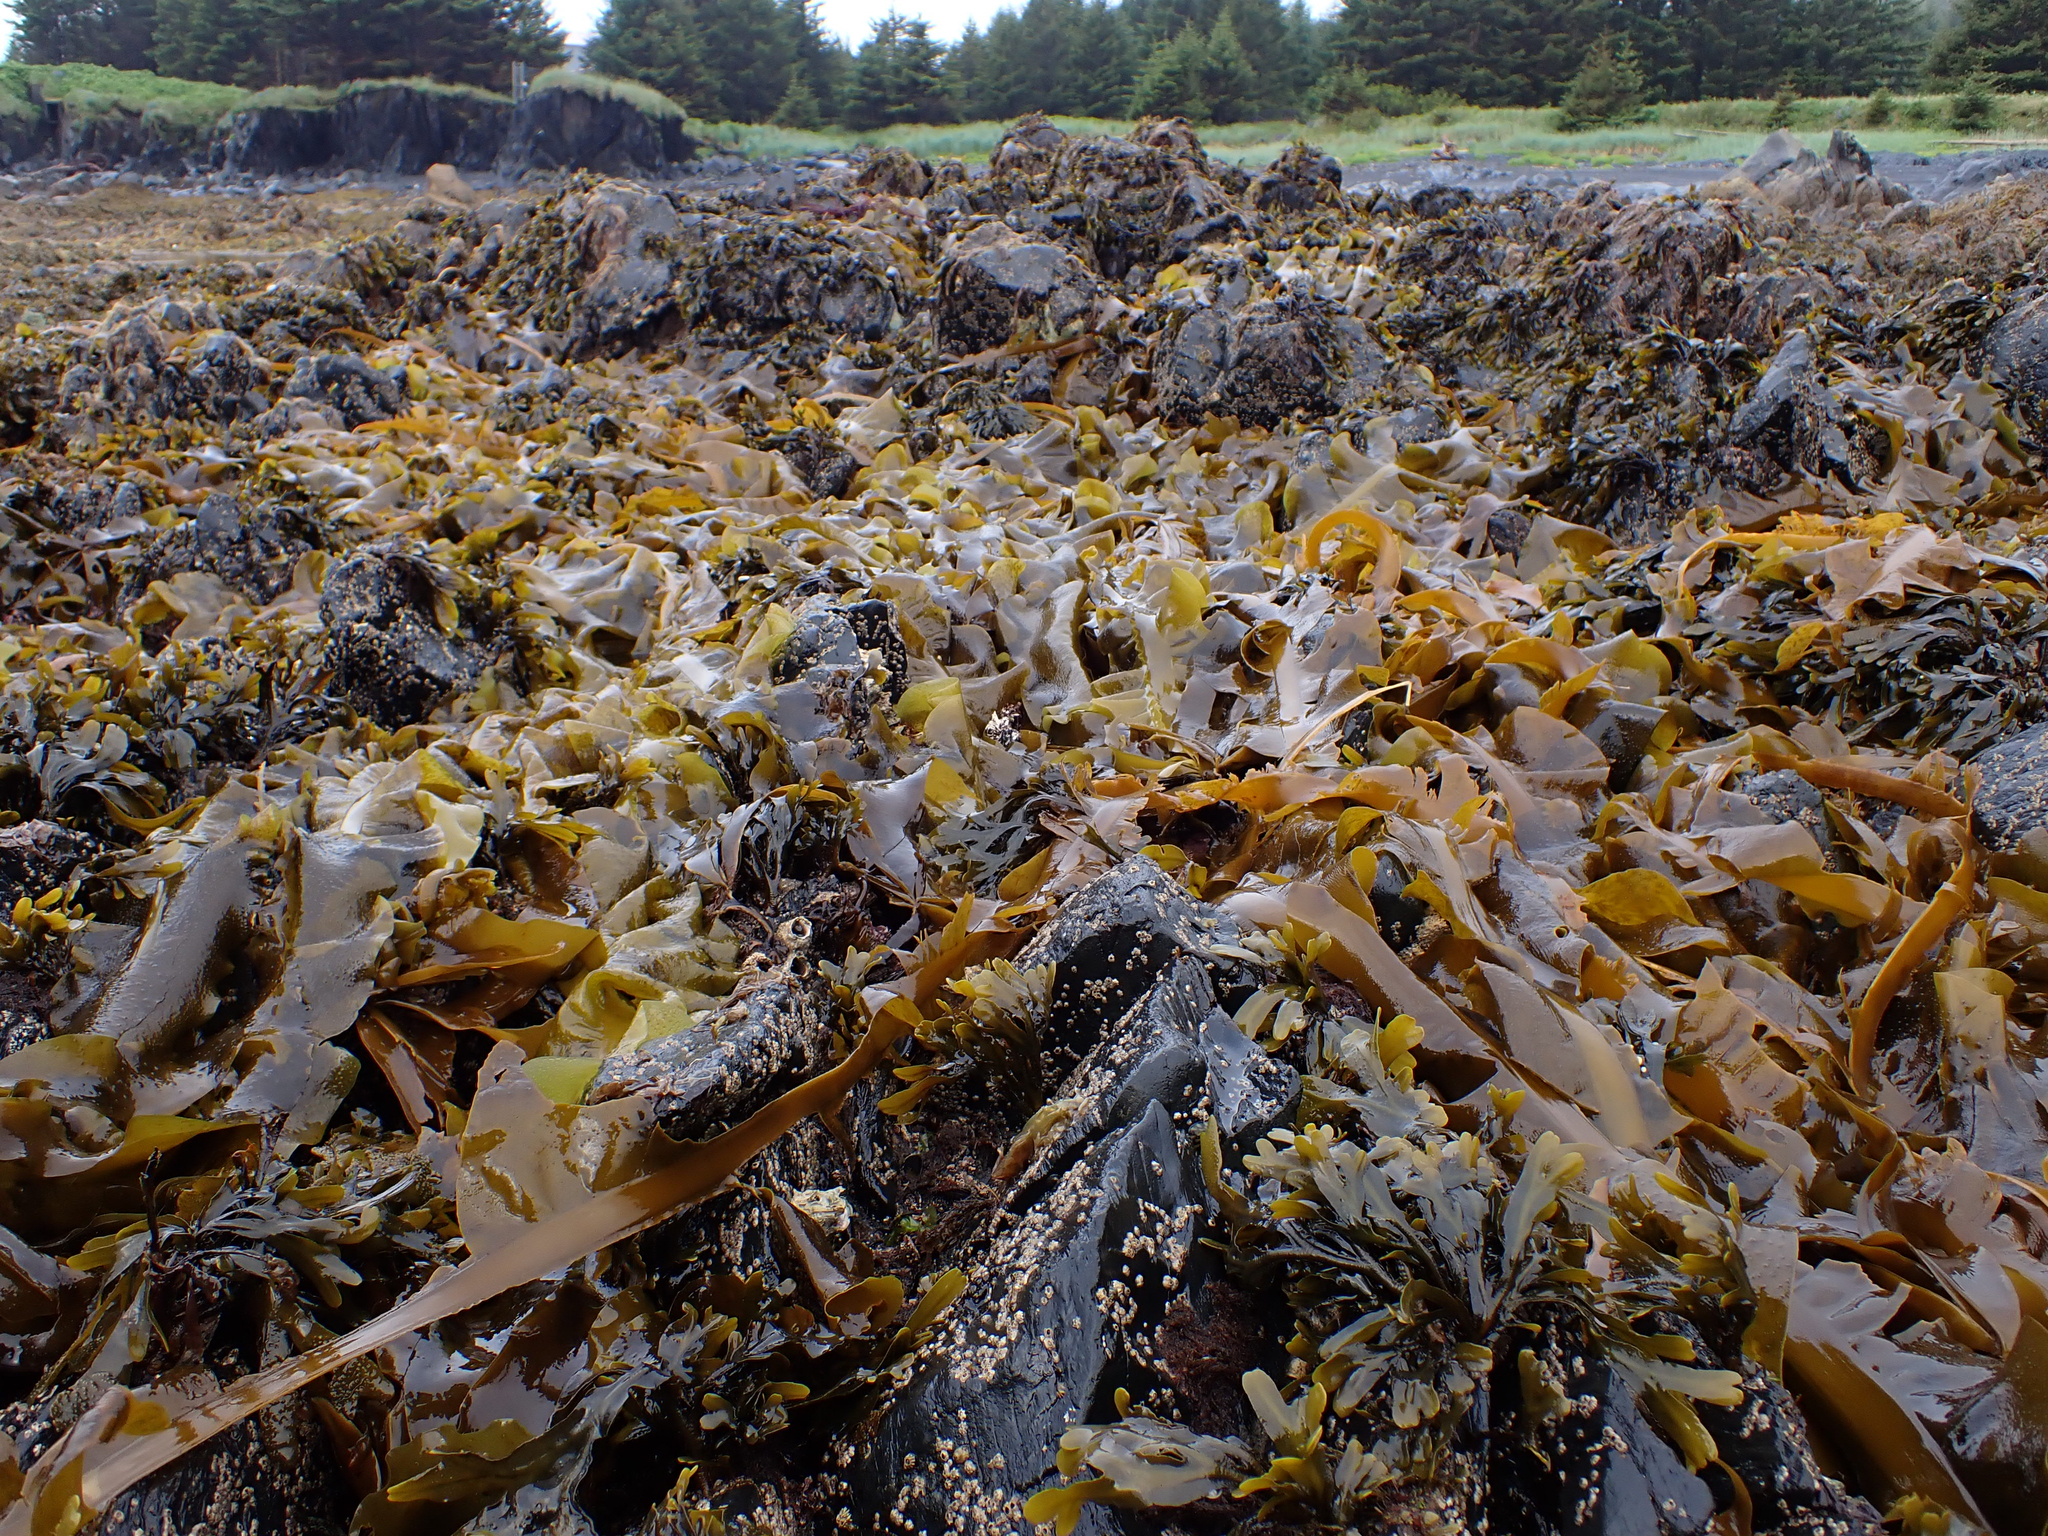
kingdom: Chromista
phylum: Ochrophyta
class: Phaeophyceae
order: Laminariales
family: Alariaceae
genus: Alaria
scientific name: Alaria marginata
